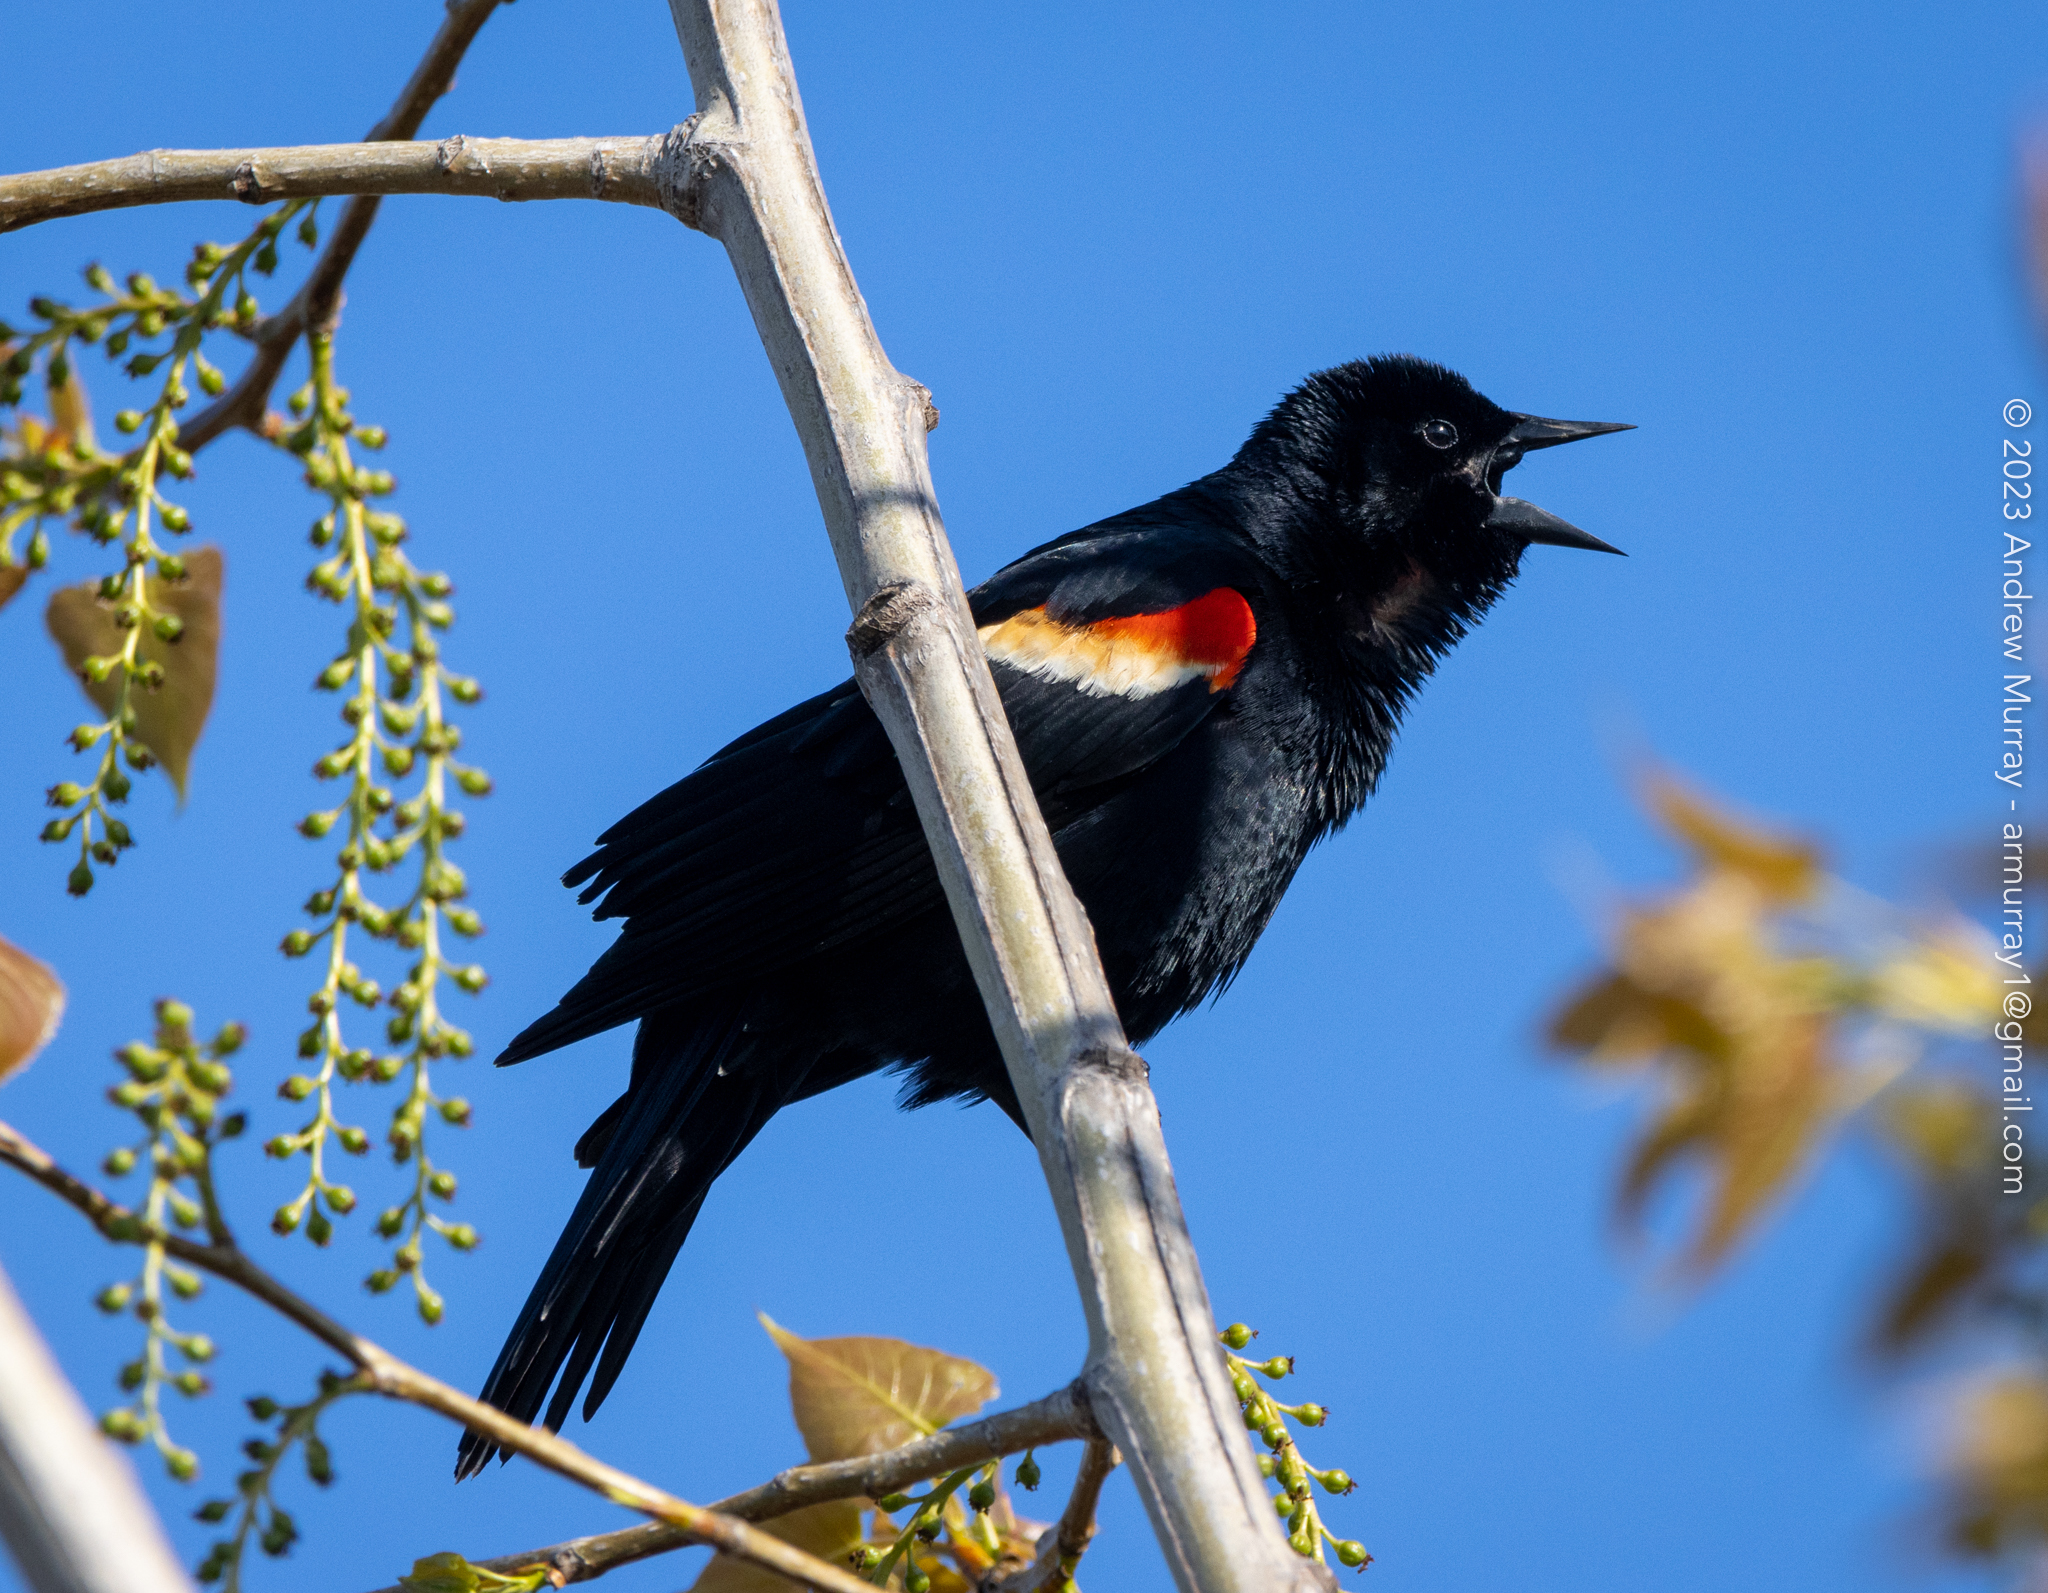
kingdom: Animalia
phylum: Chordata
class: Aves
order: Passeriformes
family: Icteridae
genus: Agelaius
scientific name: Agelaius phoeniceus
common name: Red-winged blackbird
